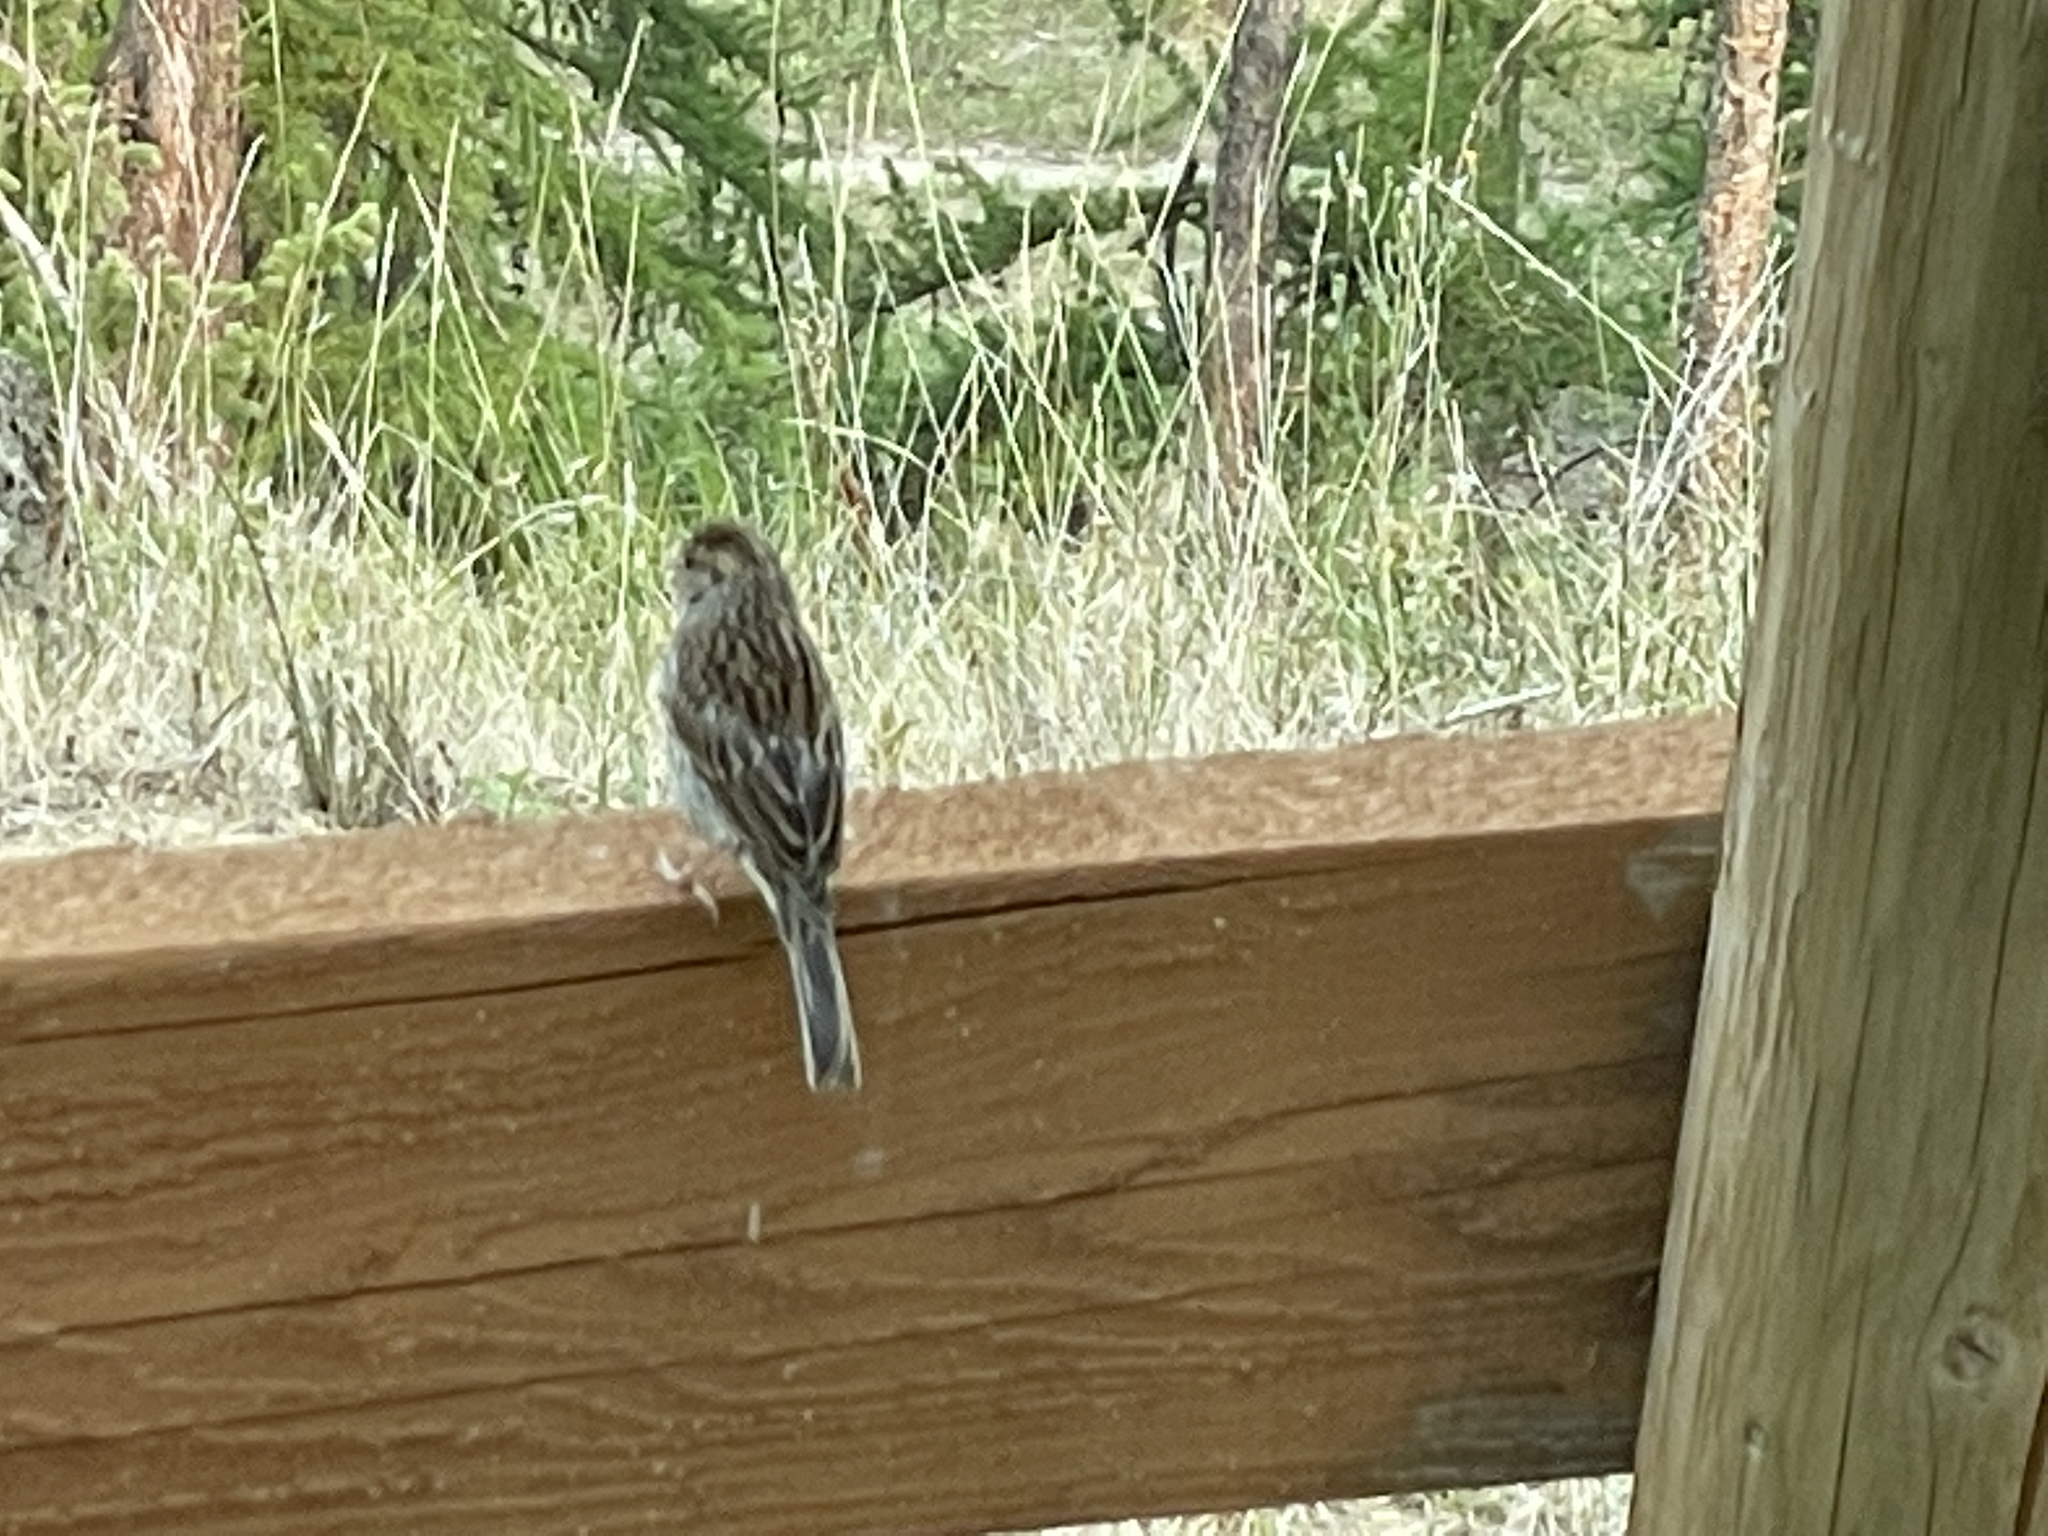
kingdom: Animalia
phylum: Chordata
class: Aves
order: Passeriformes
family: Passerellidae
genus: Spizella
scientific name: Spizella passerina
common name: Chipping sparrow
